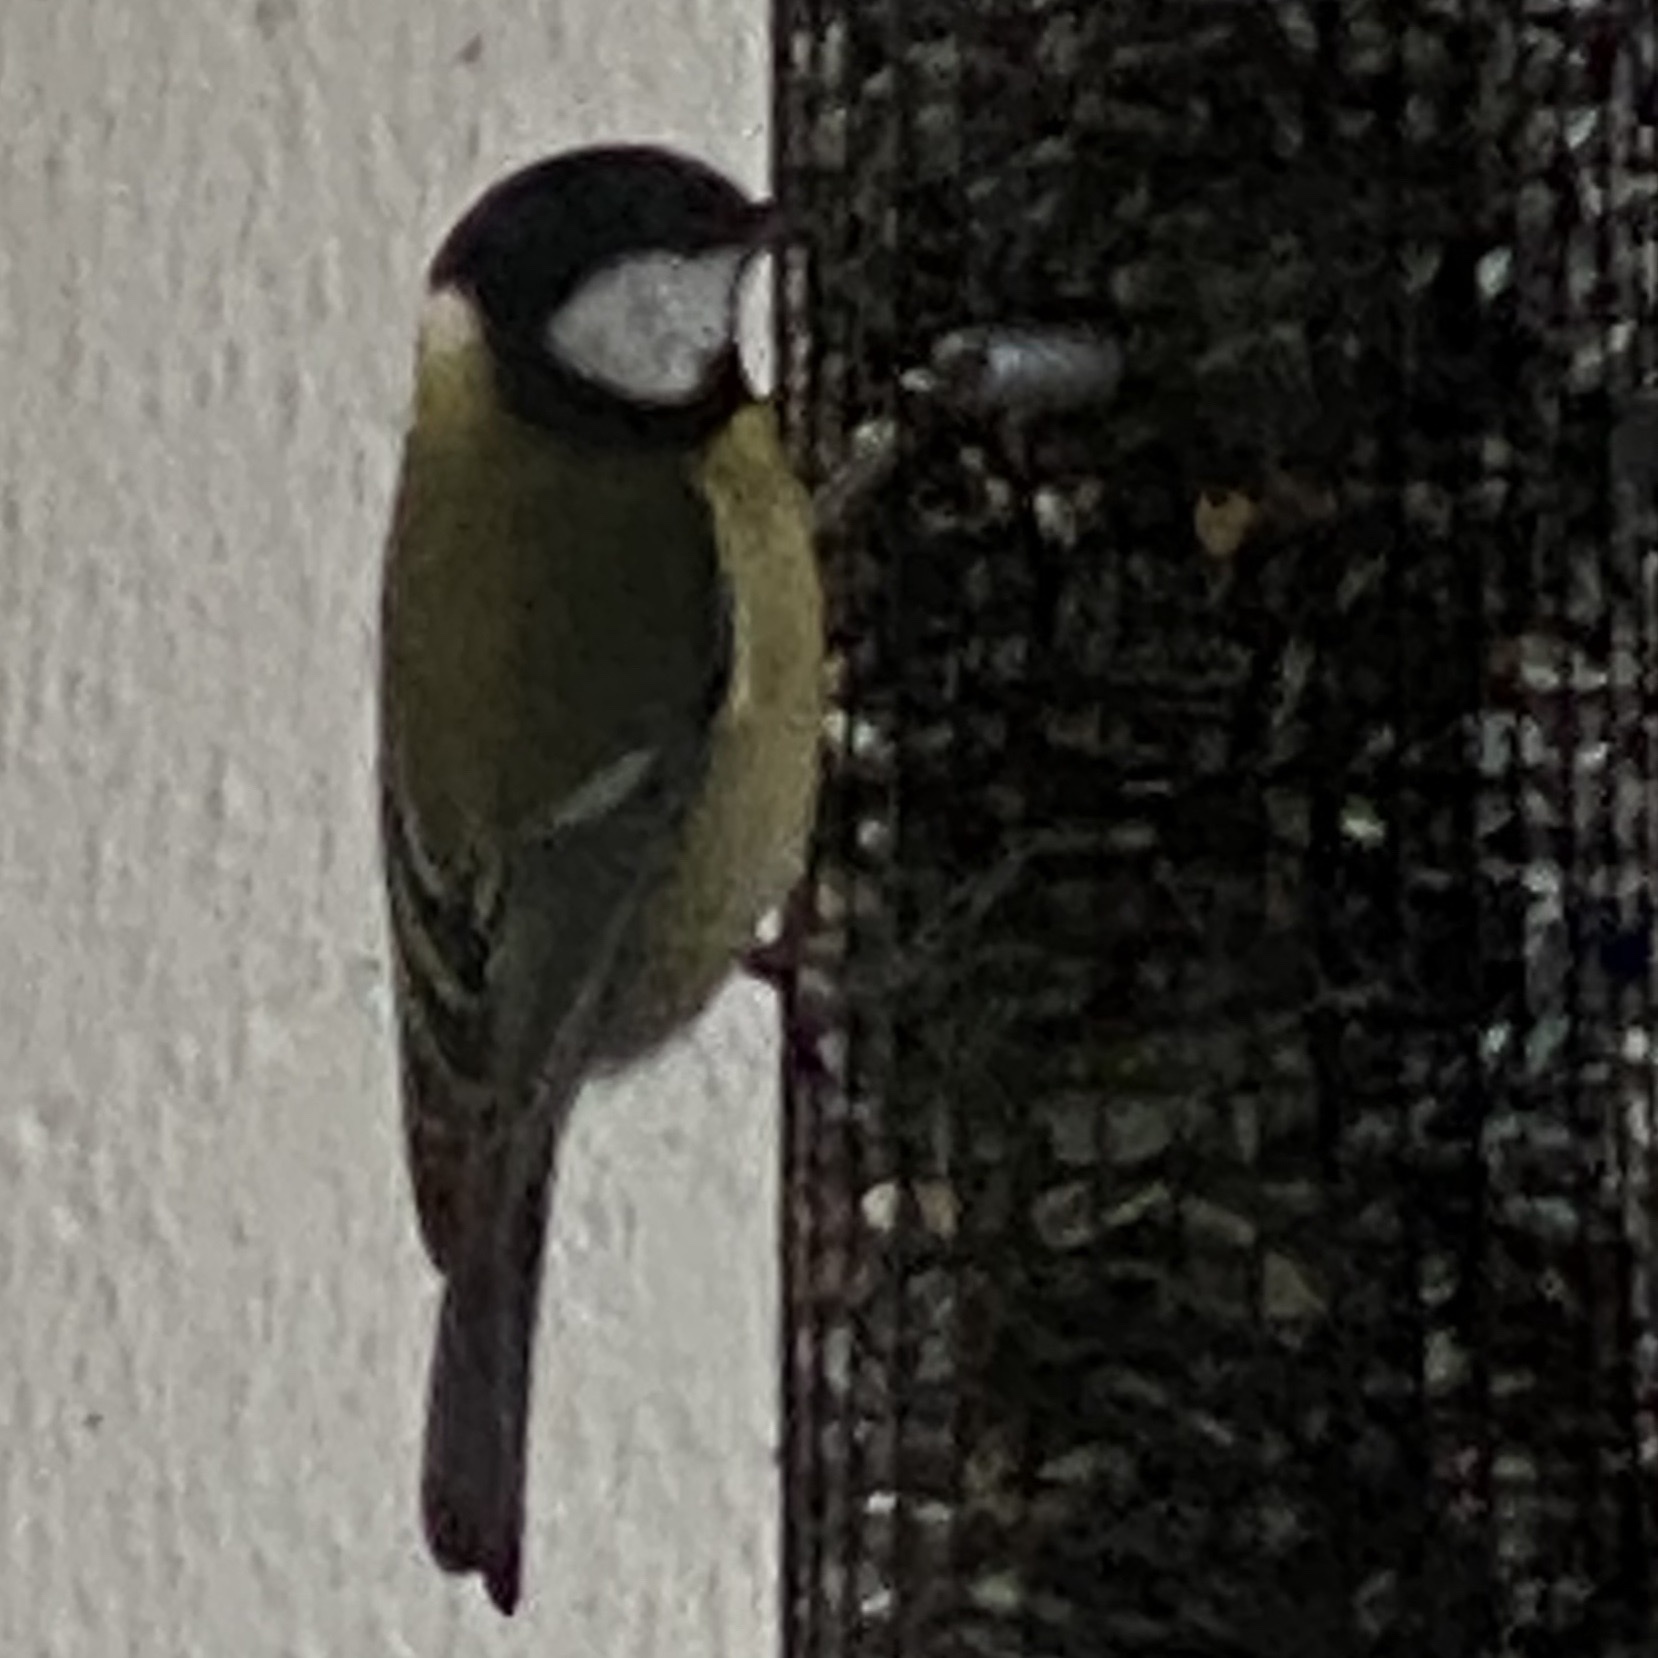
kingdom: Animalia
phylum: Chordata
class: Aves
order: Passeriformes
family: Paridae
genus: Parus
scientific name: Parus major
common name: Great tit
